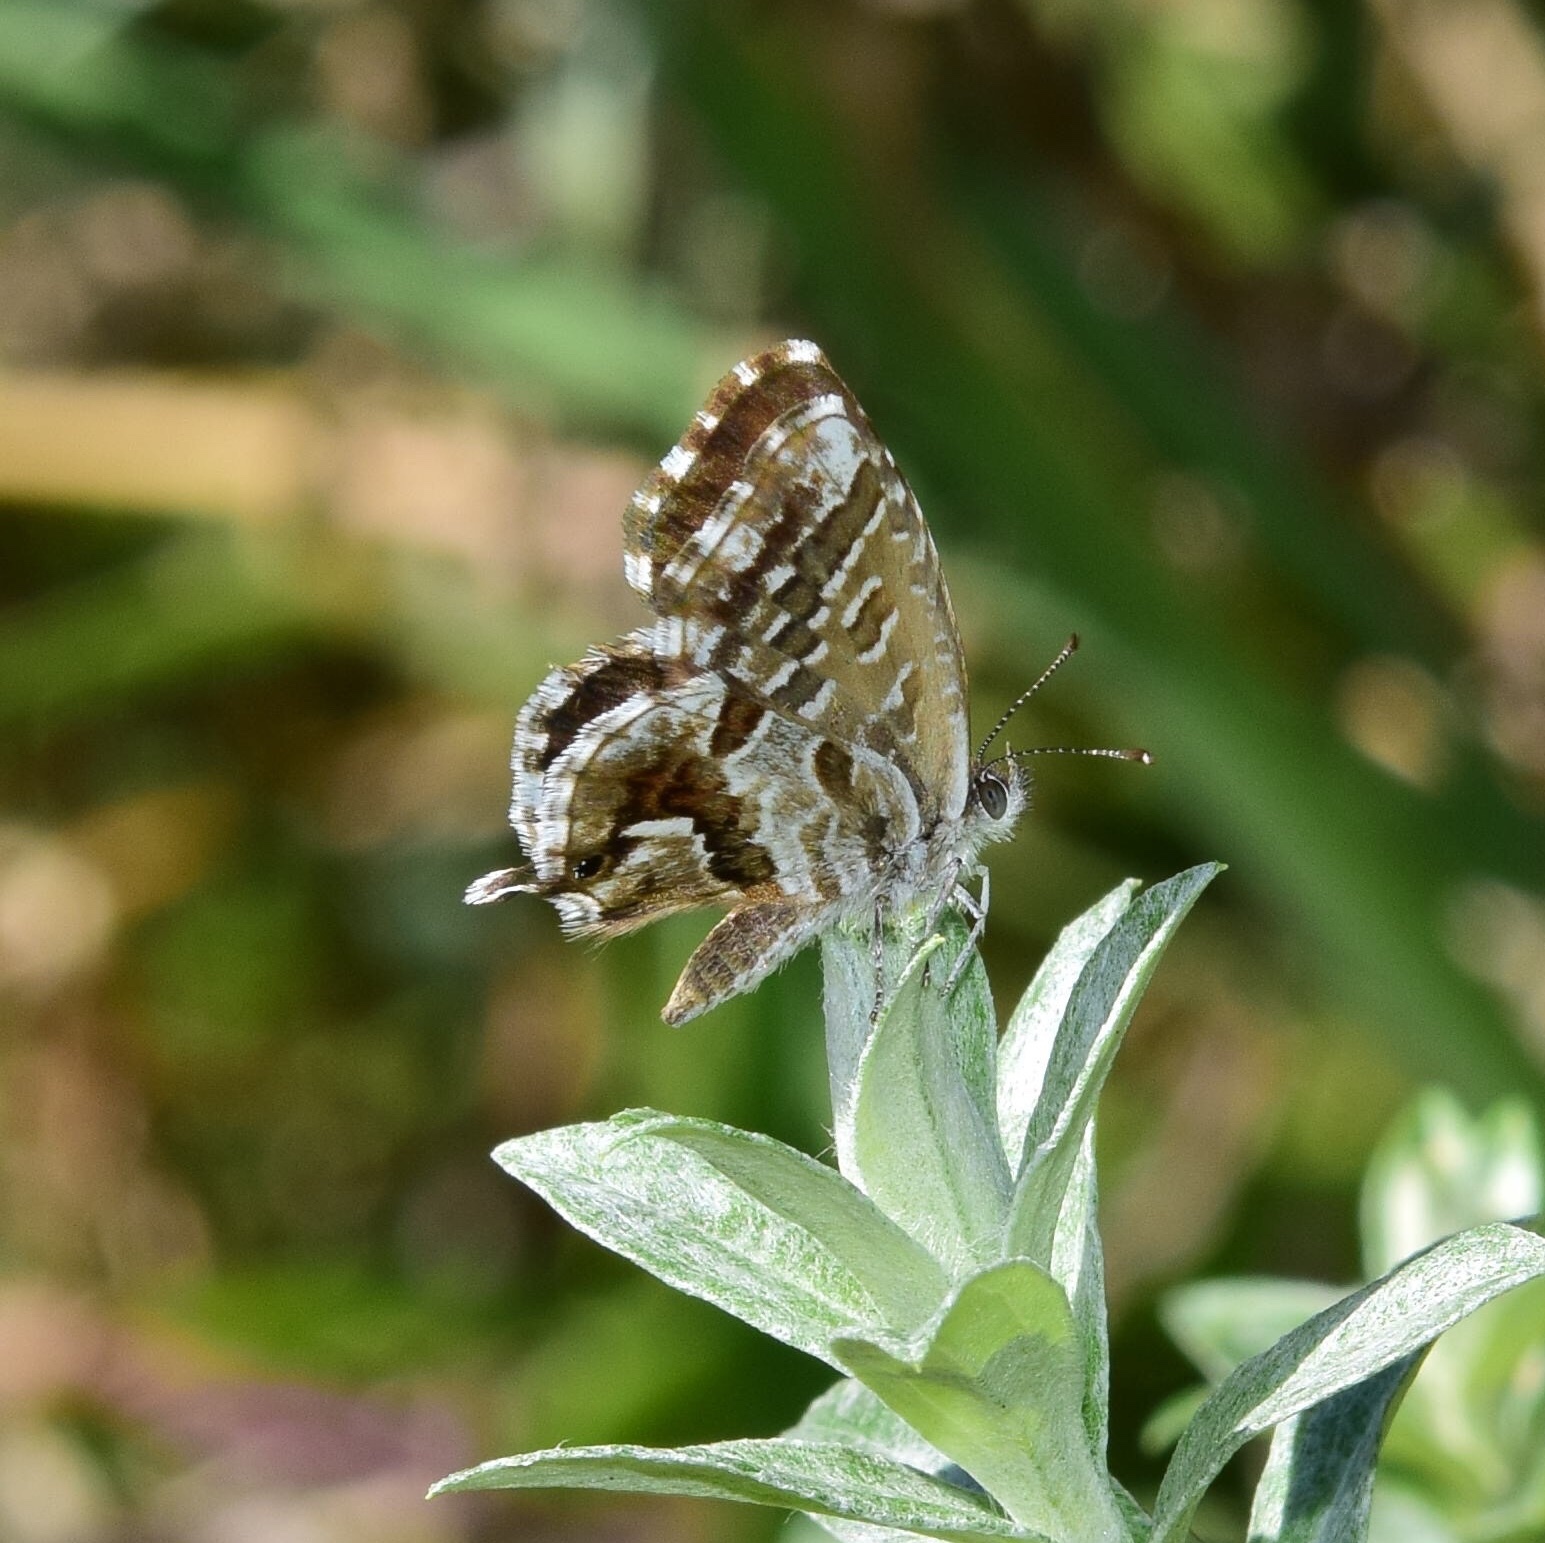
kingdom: Animalia
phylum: Arthropoda
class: Insecta
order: Lepidoptera
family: Lycaenidae
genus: Cacyreus
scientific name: Cacyreus marshalli
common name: Geranium bronze
